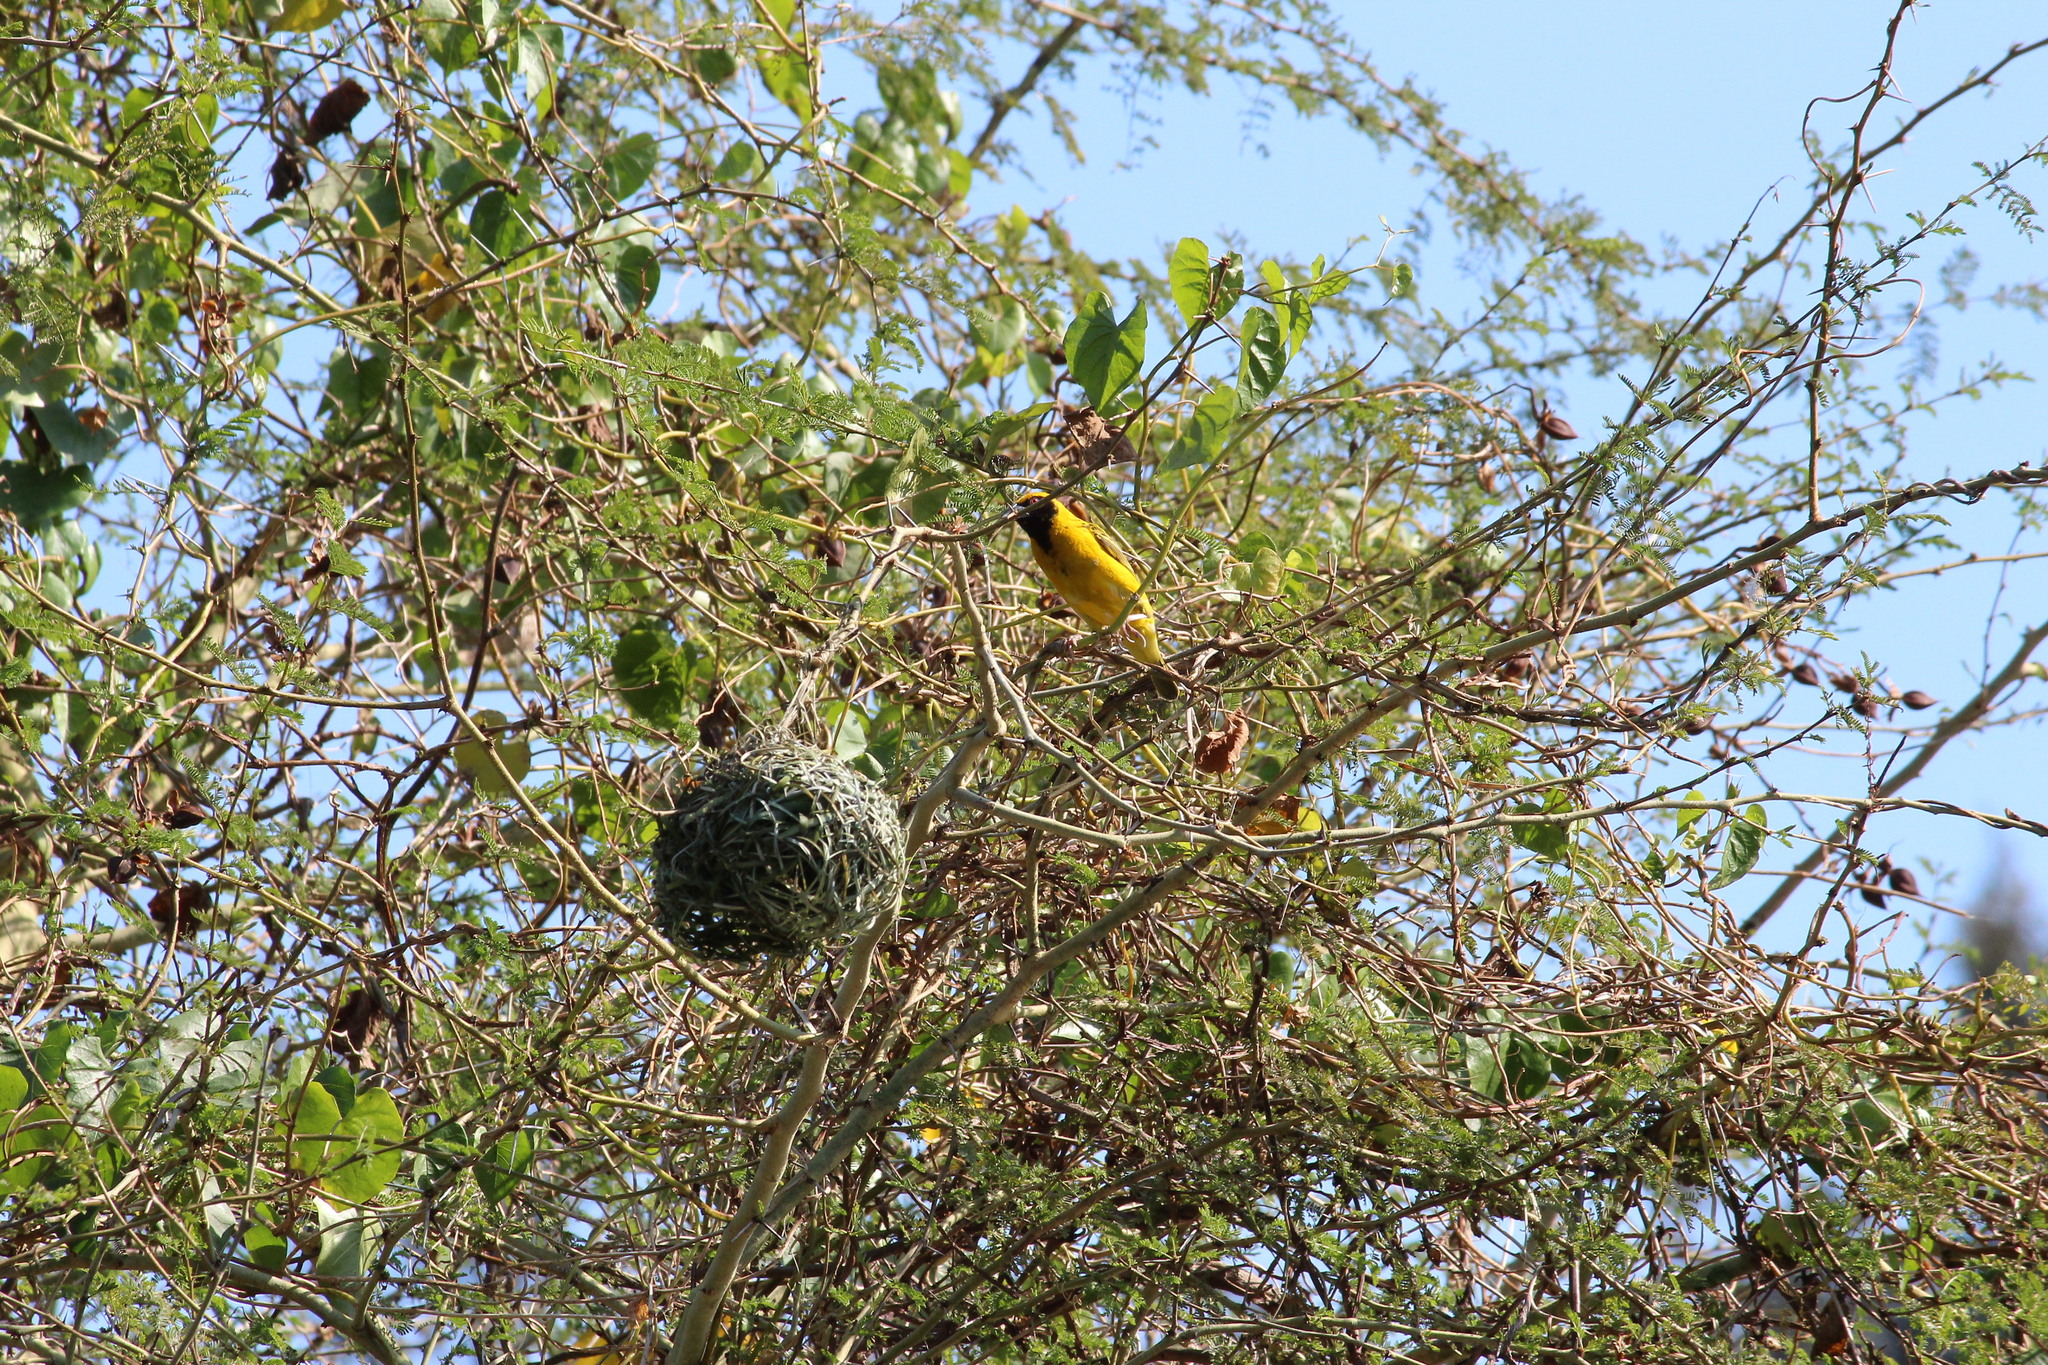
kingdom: Animalia
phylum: Chordata
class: Aves
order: Passeriformes
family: Ploceidae
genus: Ploceus
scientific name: Ploceus cucullatus
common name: Village weaver
